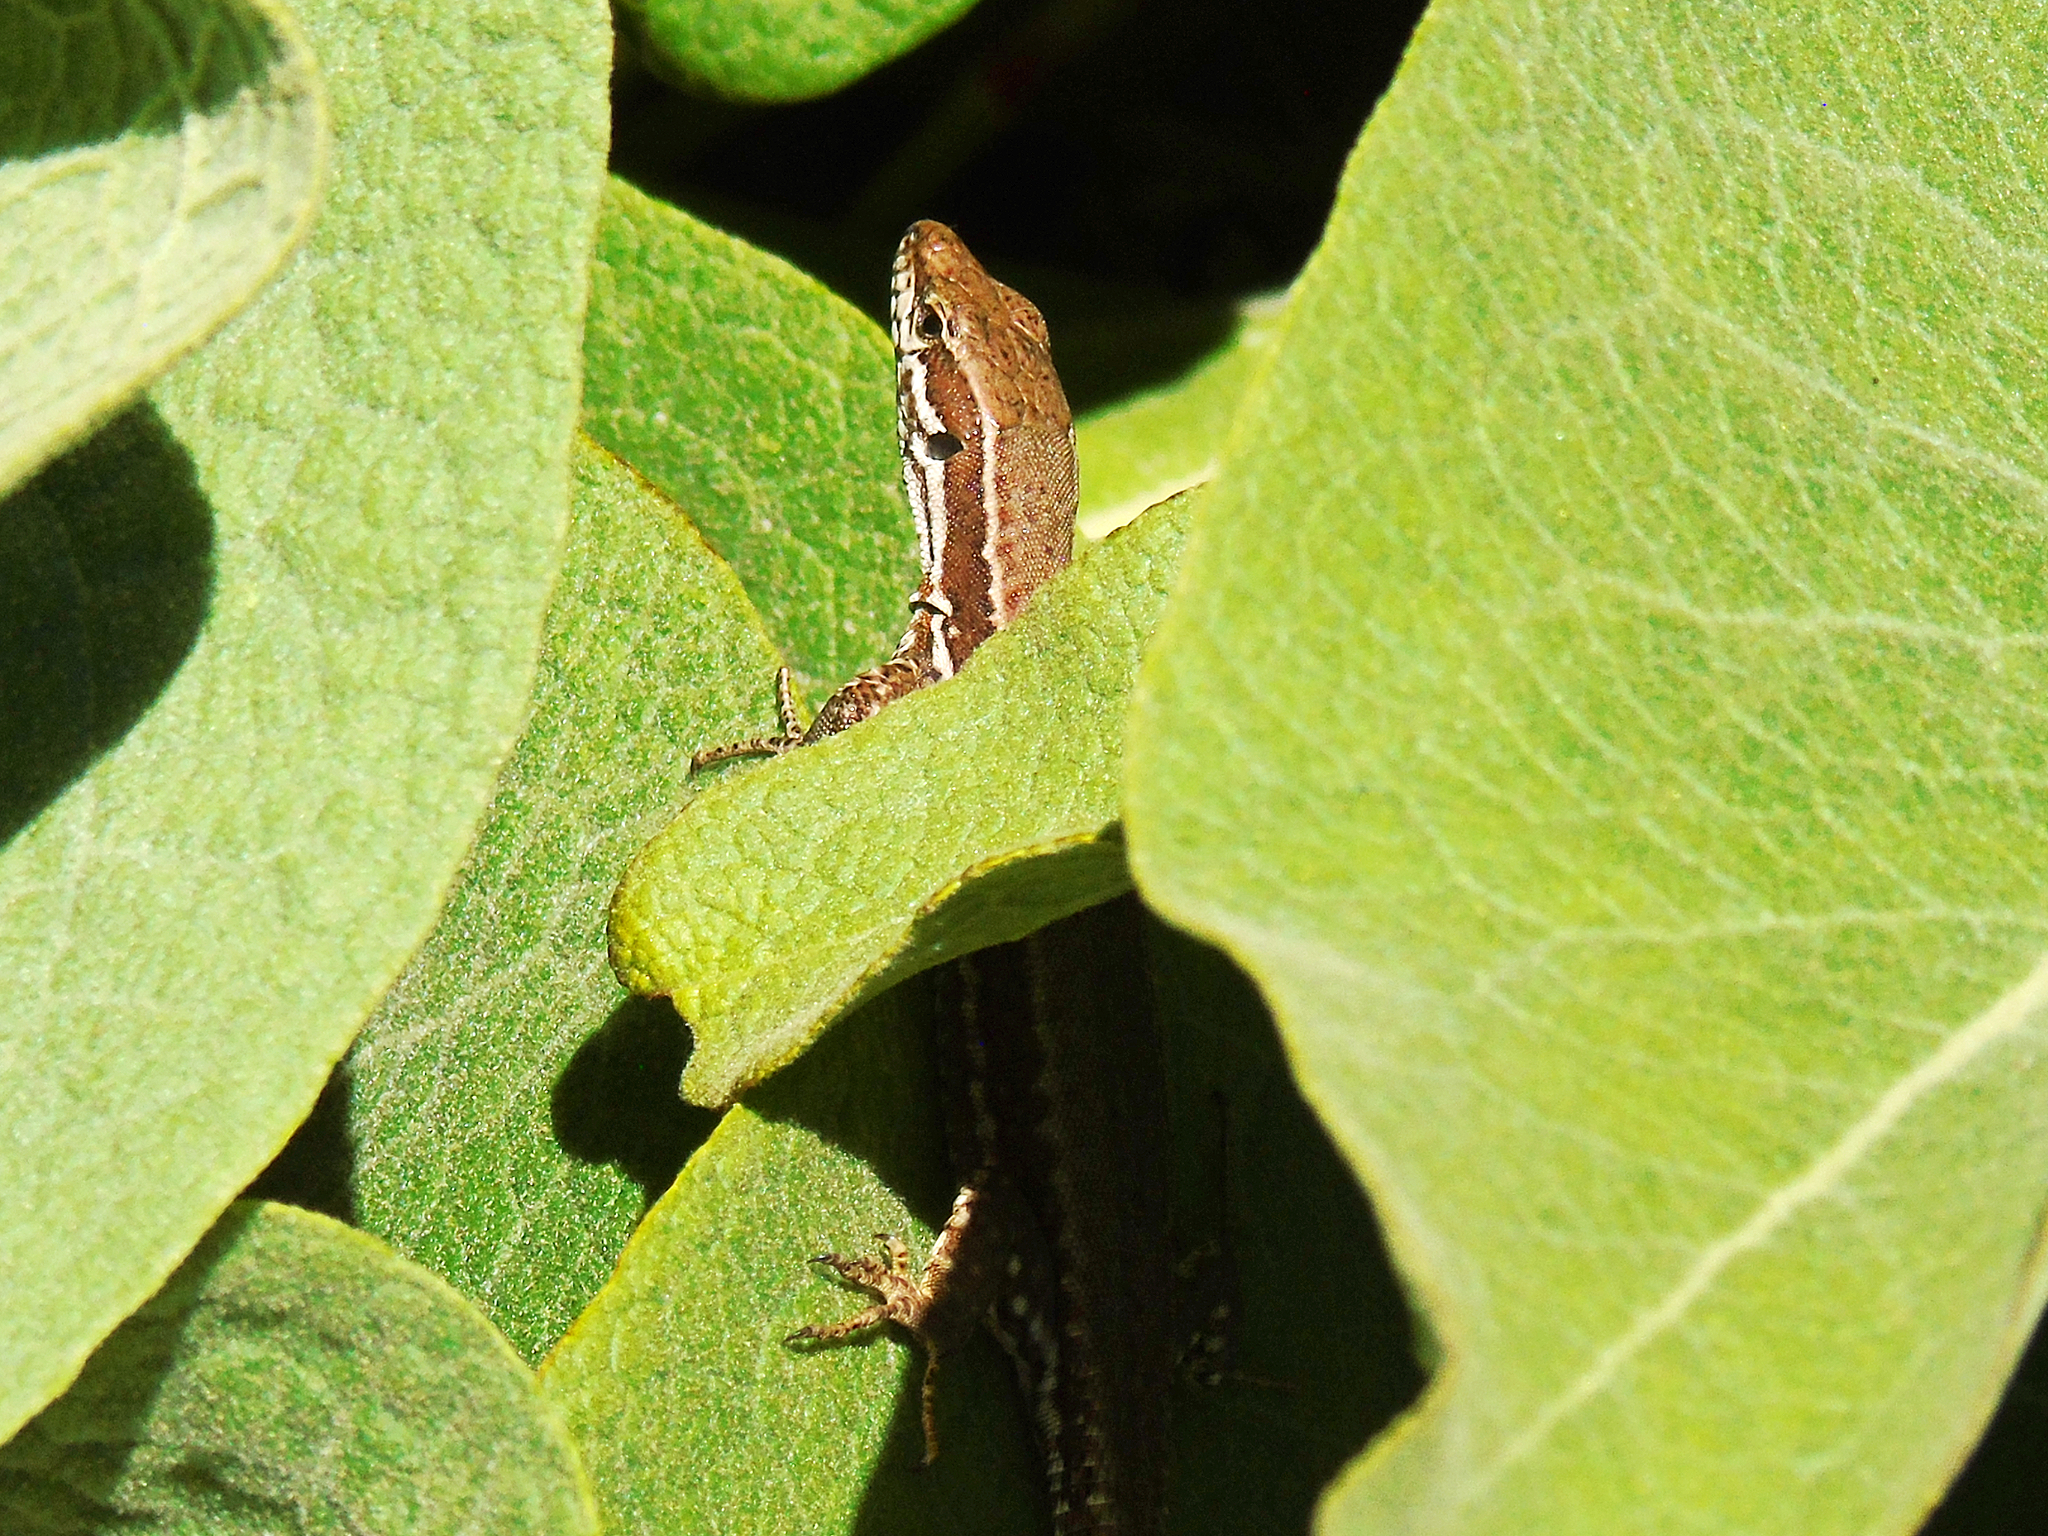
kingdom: Animalia
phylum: Chordata
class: Squamata
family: Lacertidae
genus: Podarcis
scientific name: Podarcis muralis
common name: Common wall lizard
